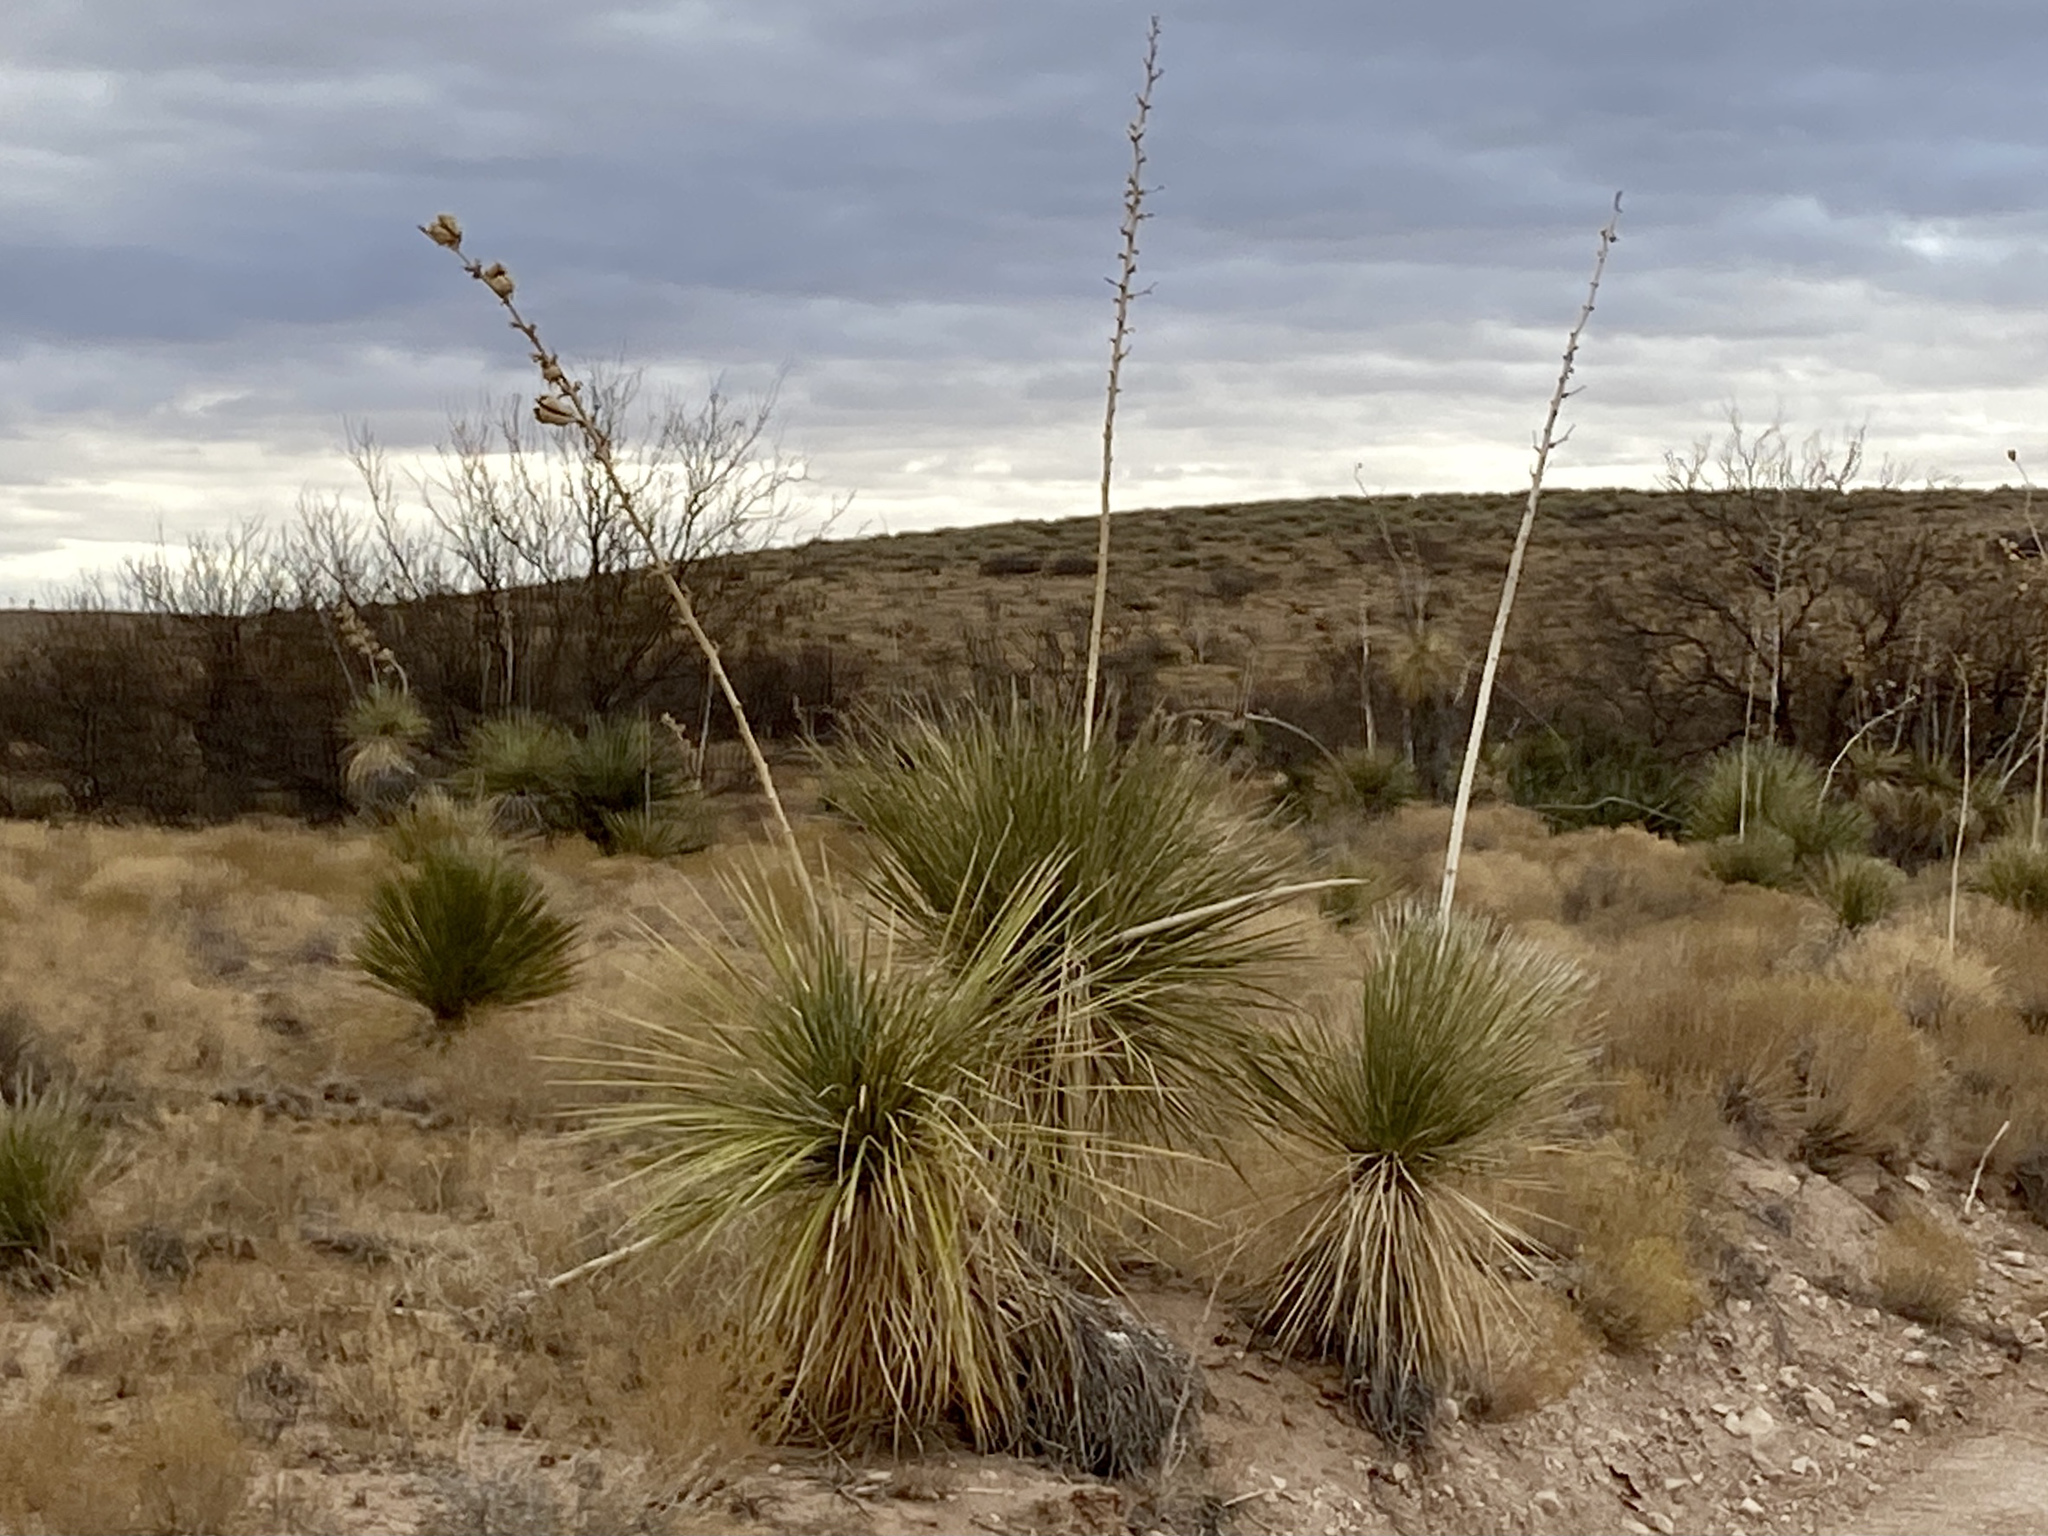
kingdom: Plantae
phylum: Tracheophyta
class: Liliopsida
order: Asparagales
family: Asparagaceae
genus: Yucca
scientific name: Yucca elata
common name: Palmella
